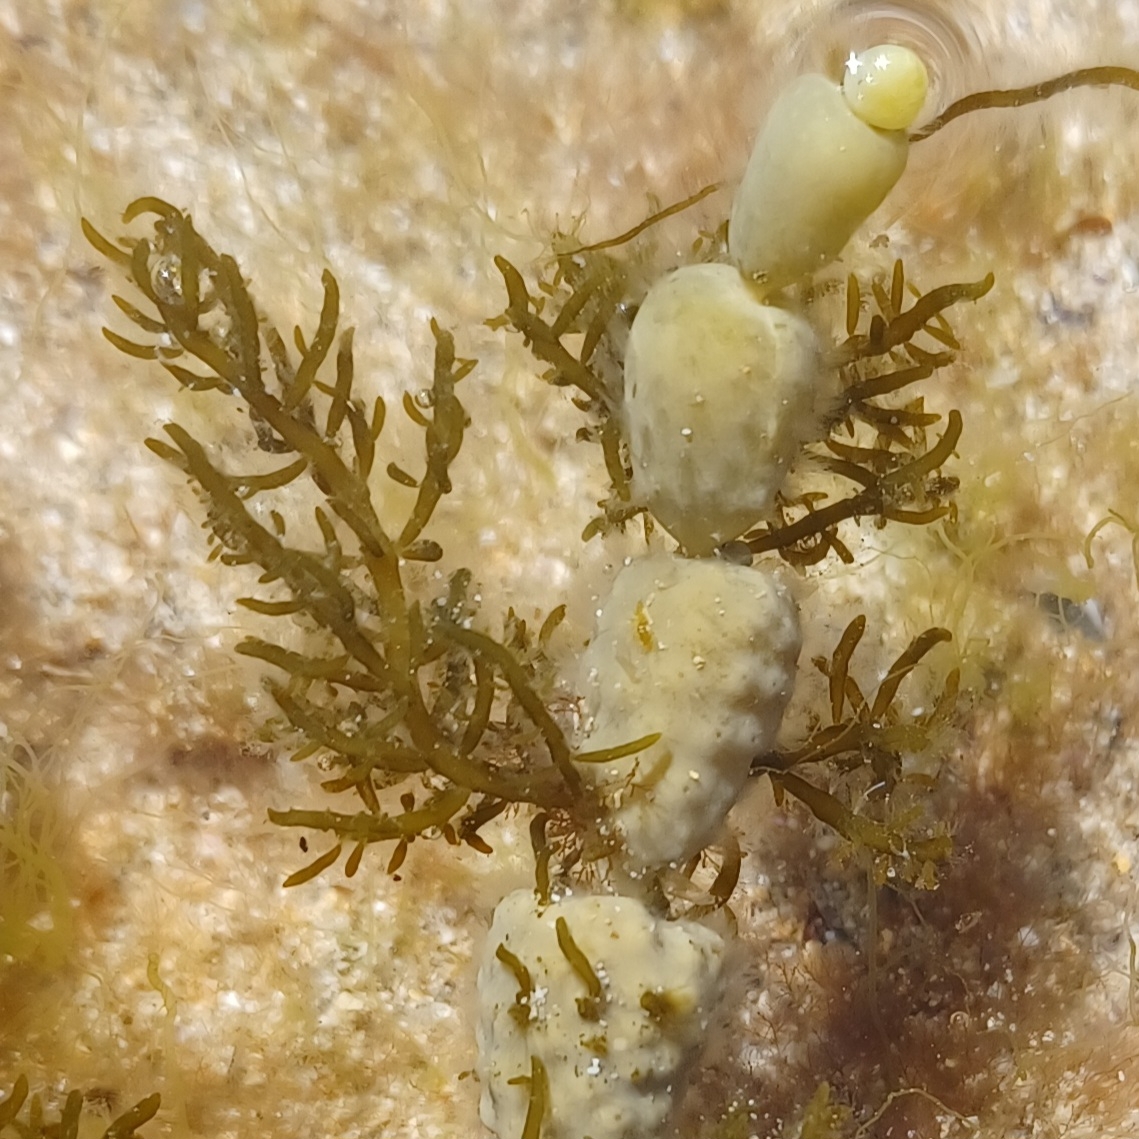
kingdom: Chromista
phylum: Ochrophyta
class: Phaeophyceae
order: Fucales
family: Notheiaceae
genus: Notheia
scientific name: Notheia anomala
